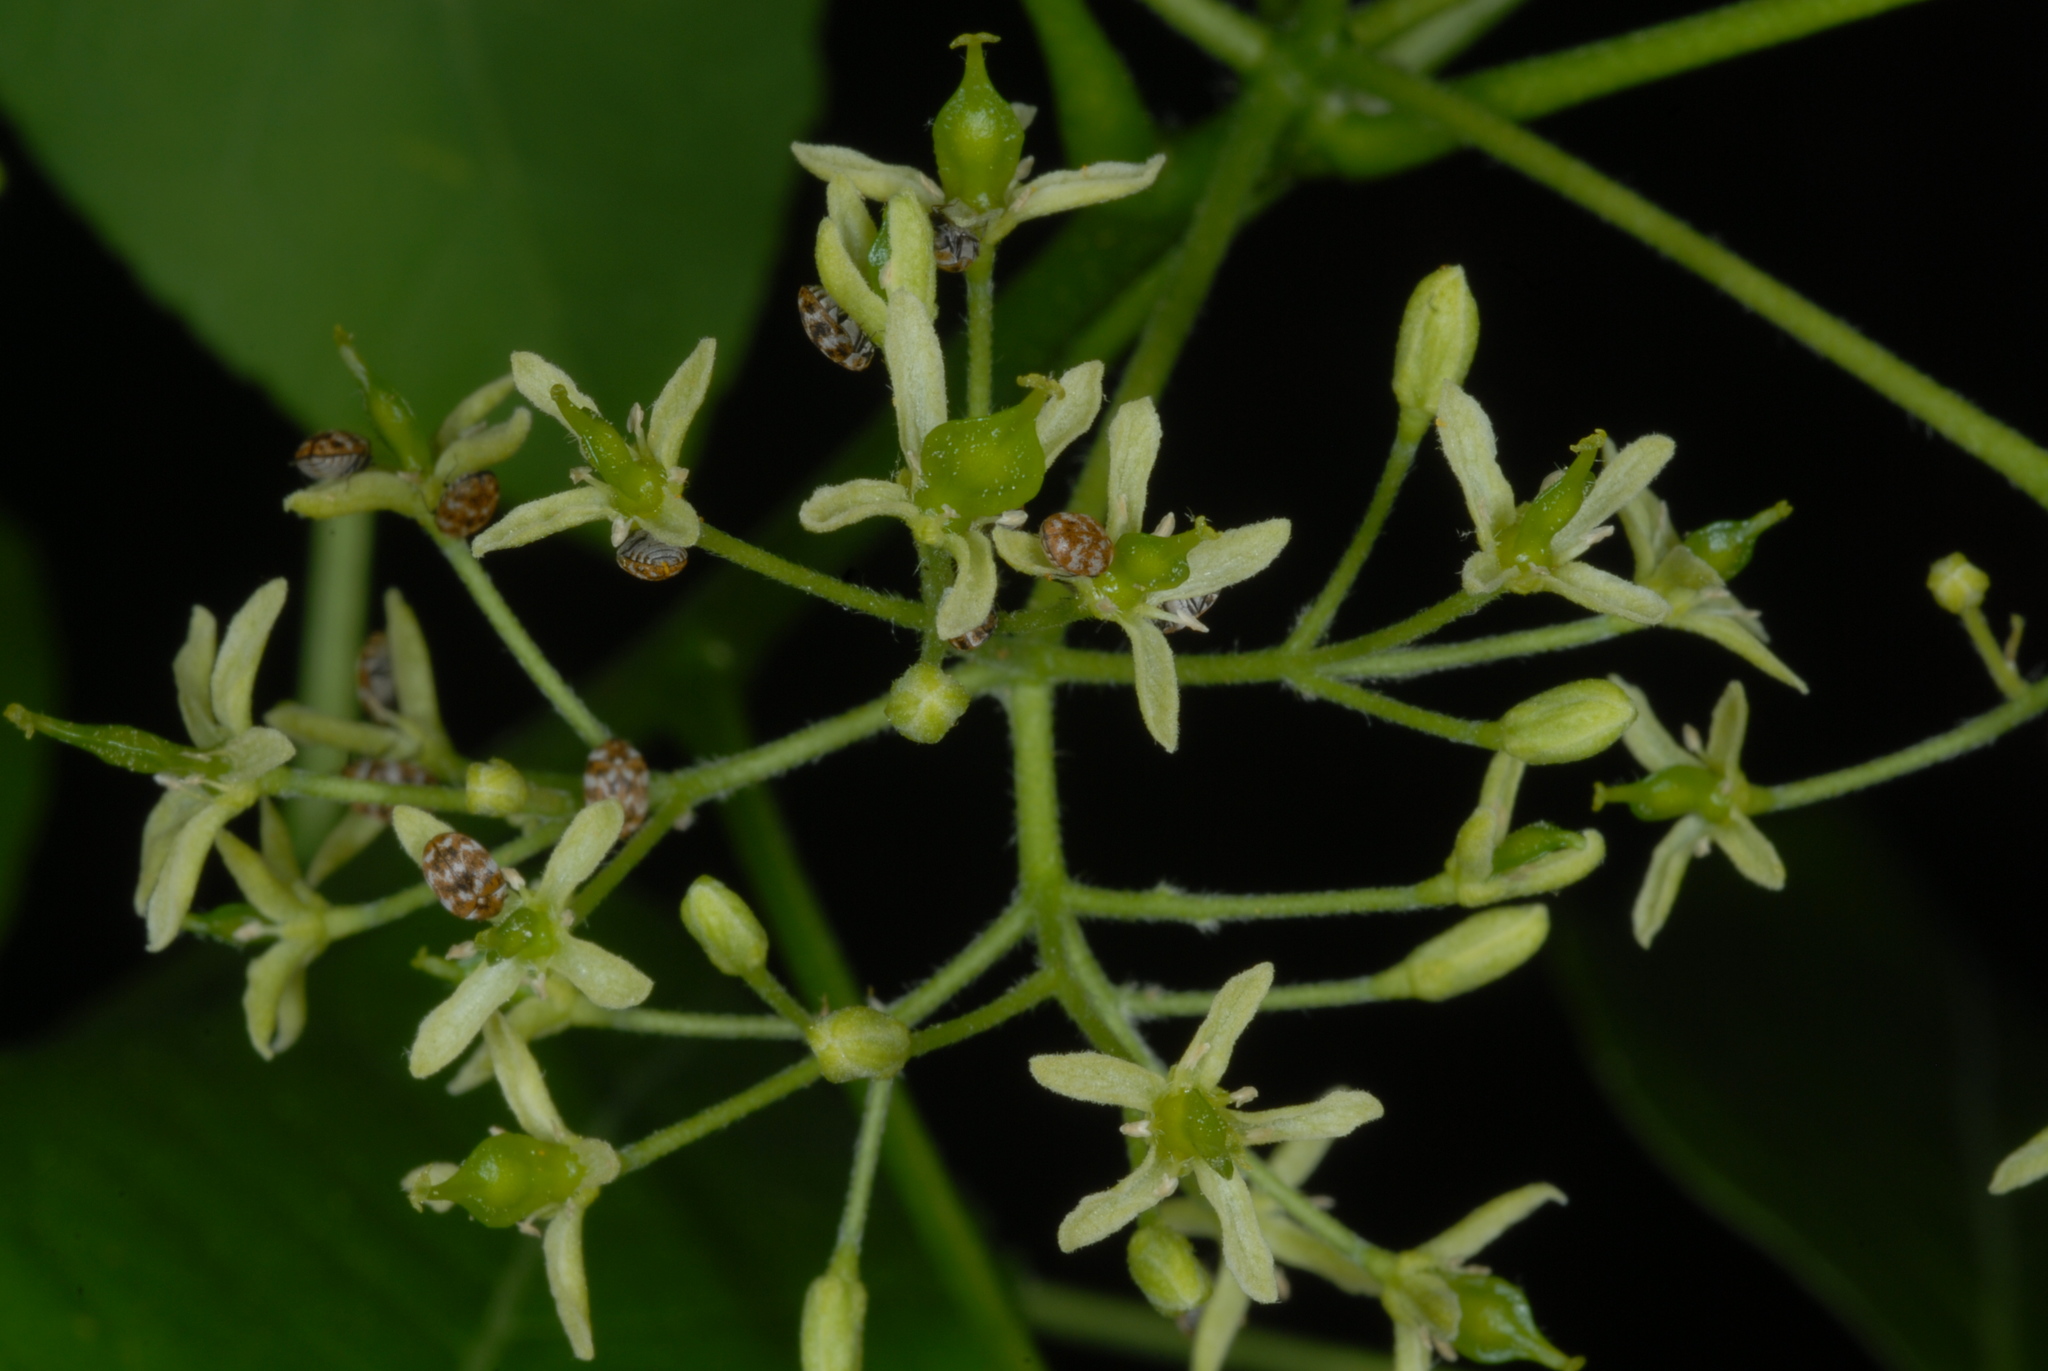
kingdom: Animalia
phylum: Arthropoda
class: Insecta
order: Coleoptera
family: Dermestidae
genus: Anthrenus
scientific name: Anthrenus verbasci
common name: Varied carpet beetle
